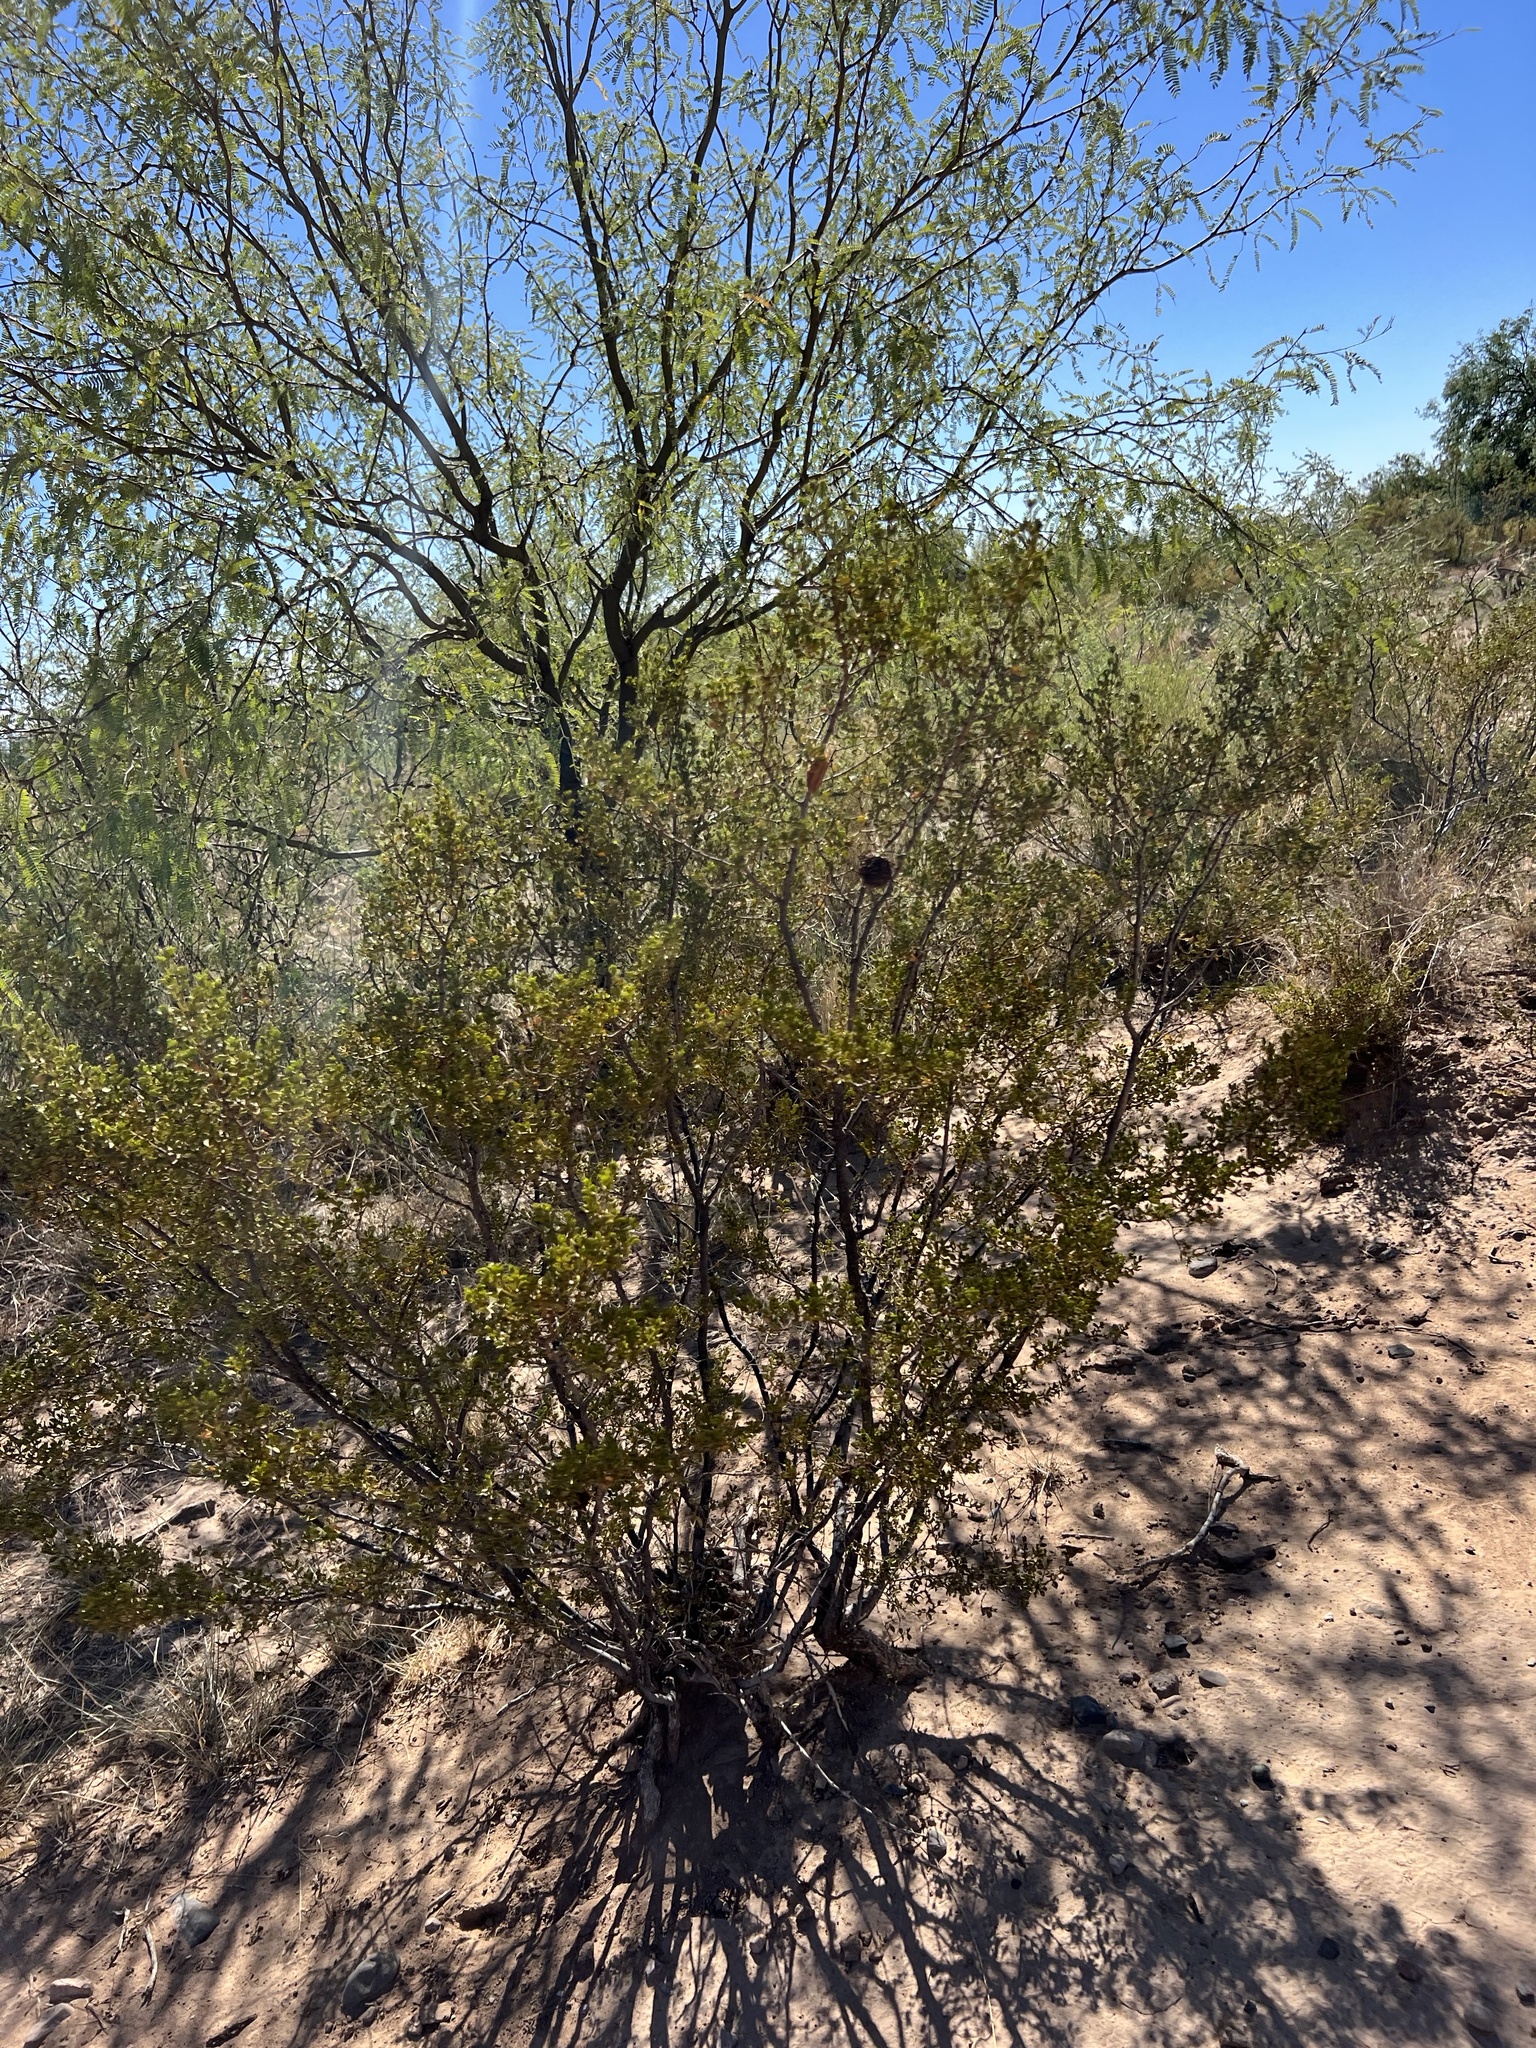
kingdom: Plantae
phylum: Tracheophyta
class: Magnoliopsida
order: Zygophyllales
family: Zygophyllaceae
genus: Larrea
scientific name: Larrea tridentata
